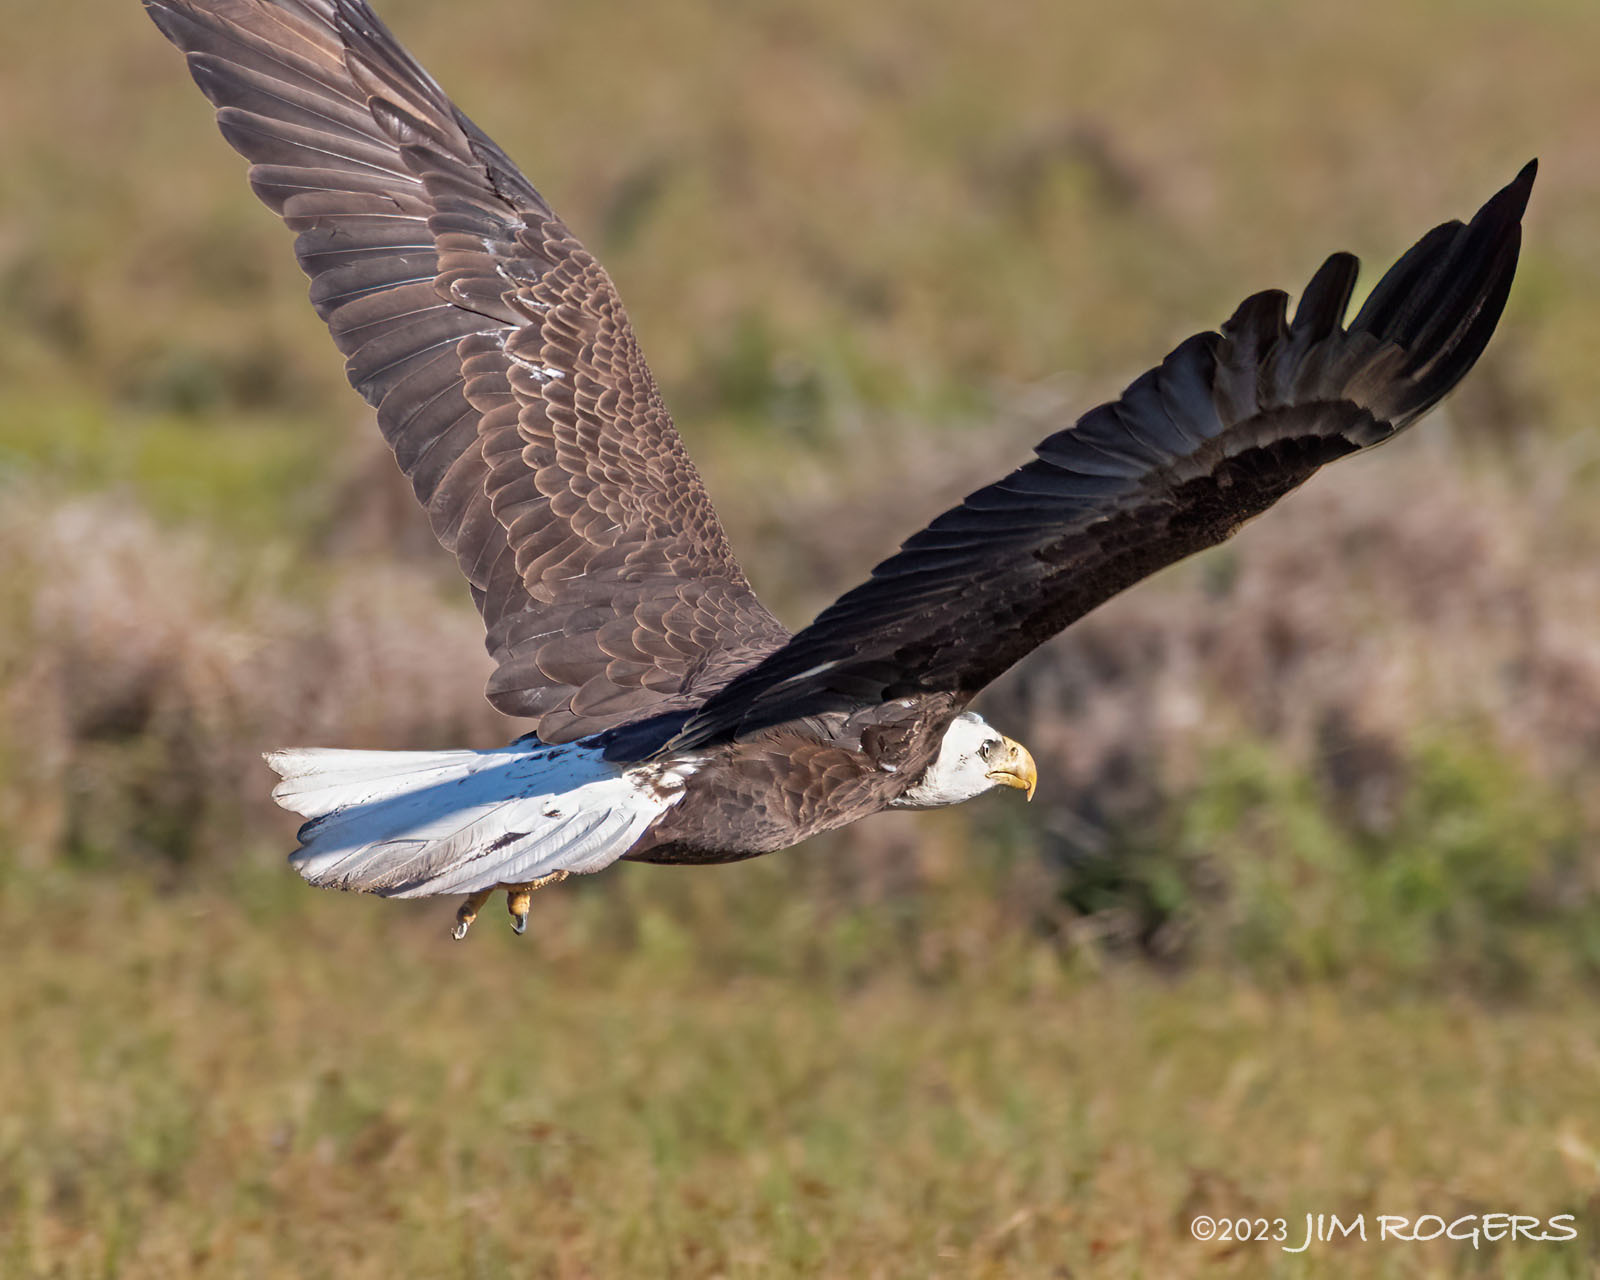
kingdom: Animalia
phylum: Chordata
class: Aves
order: Accipitriformes
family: Accipitridae
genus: Haliaeetus
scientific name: Haliaeetus leucocephalus
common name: Bald eagle
